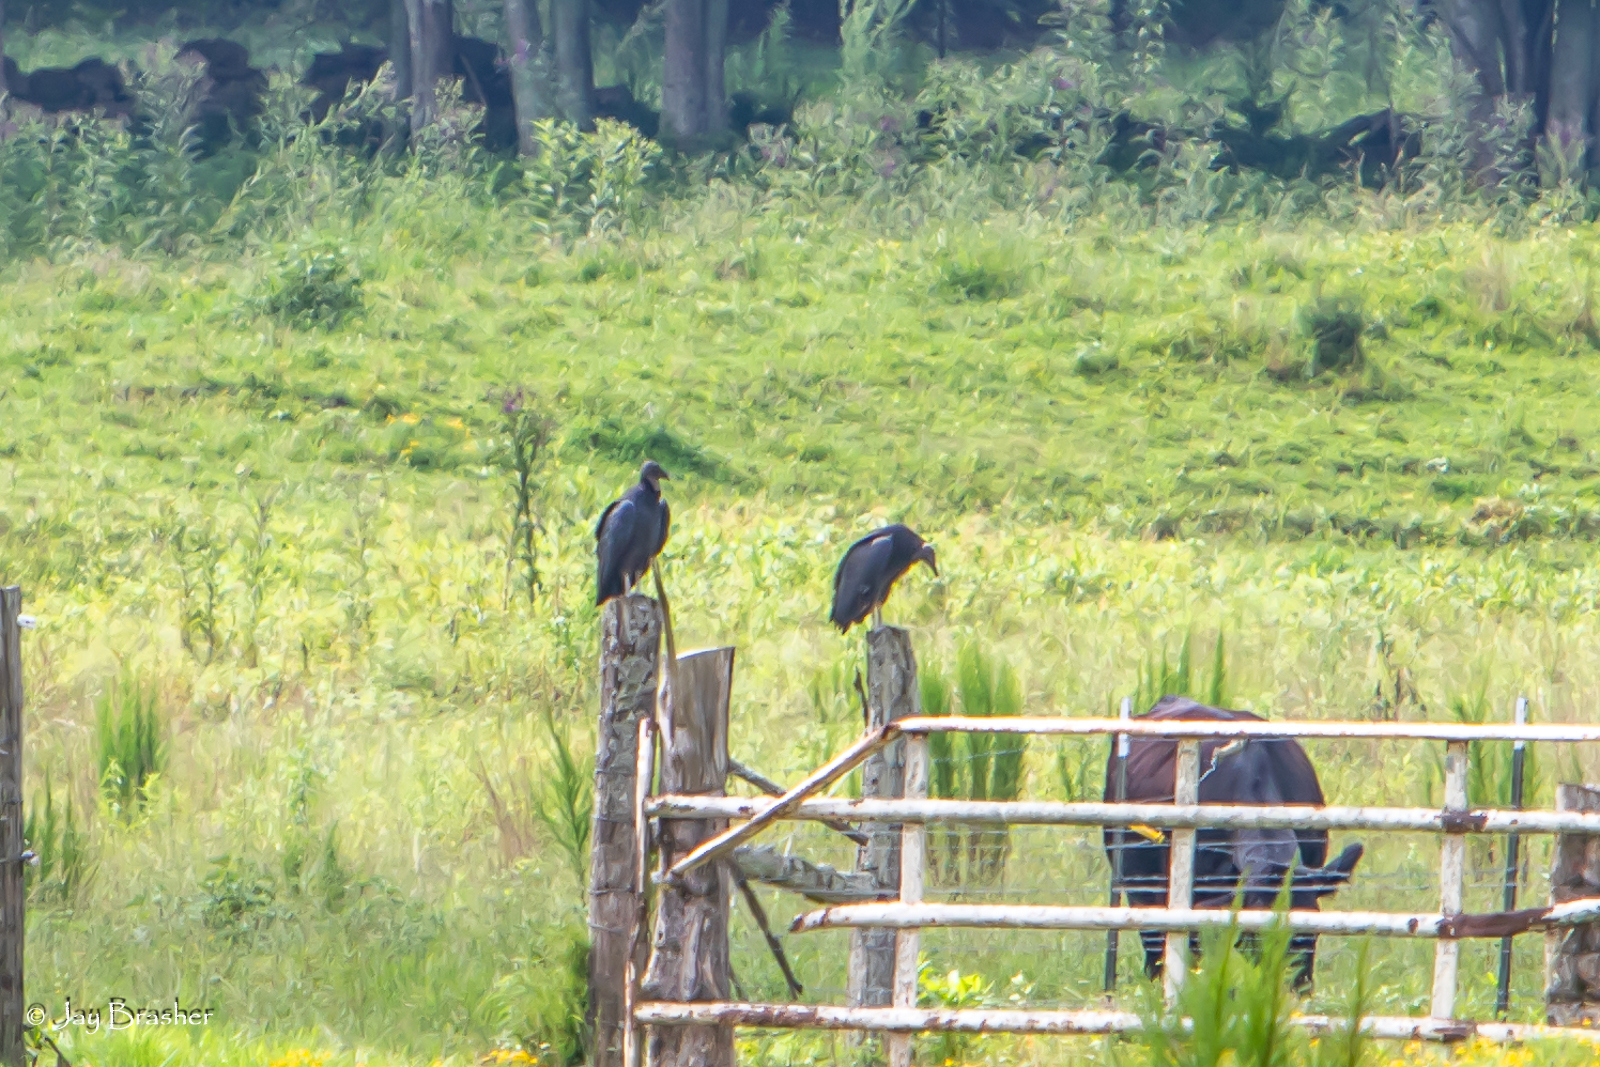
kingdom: Animalia
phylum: Chordata
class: Aves
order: Accipitriformes
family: Cathartidae
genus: Coragyps
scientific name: Coragyps atratus
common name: Black vulture
